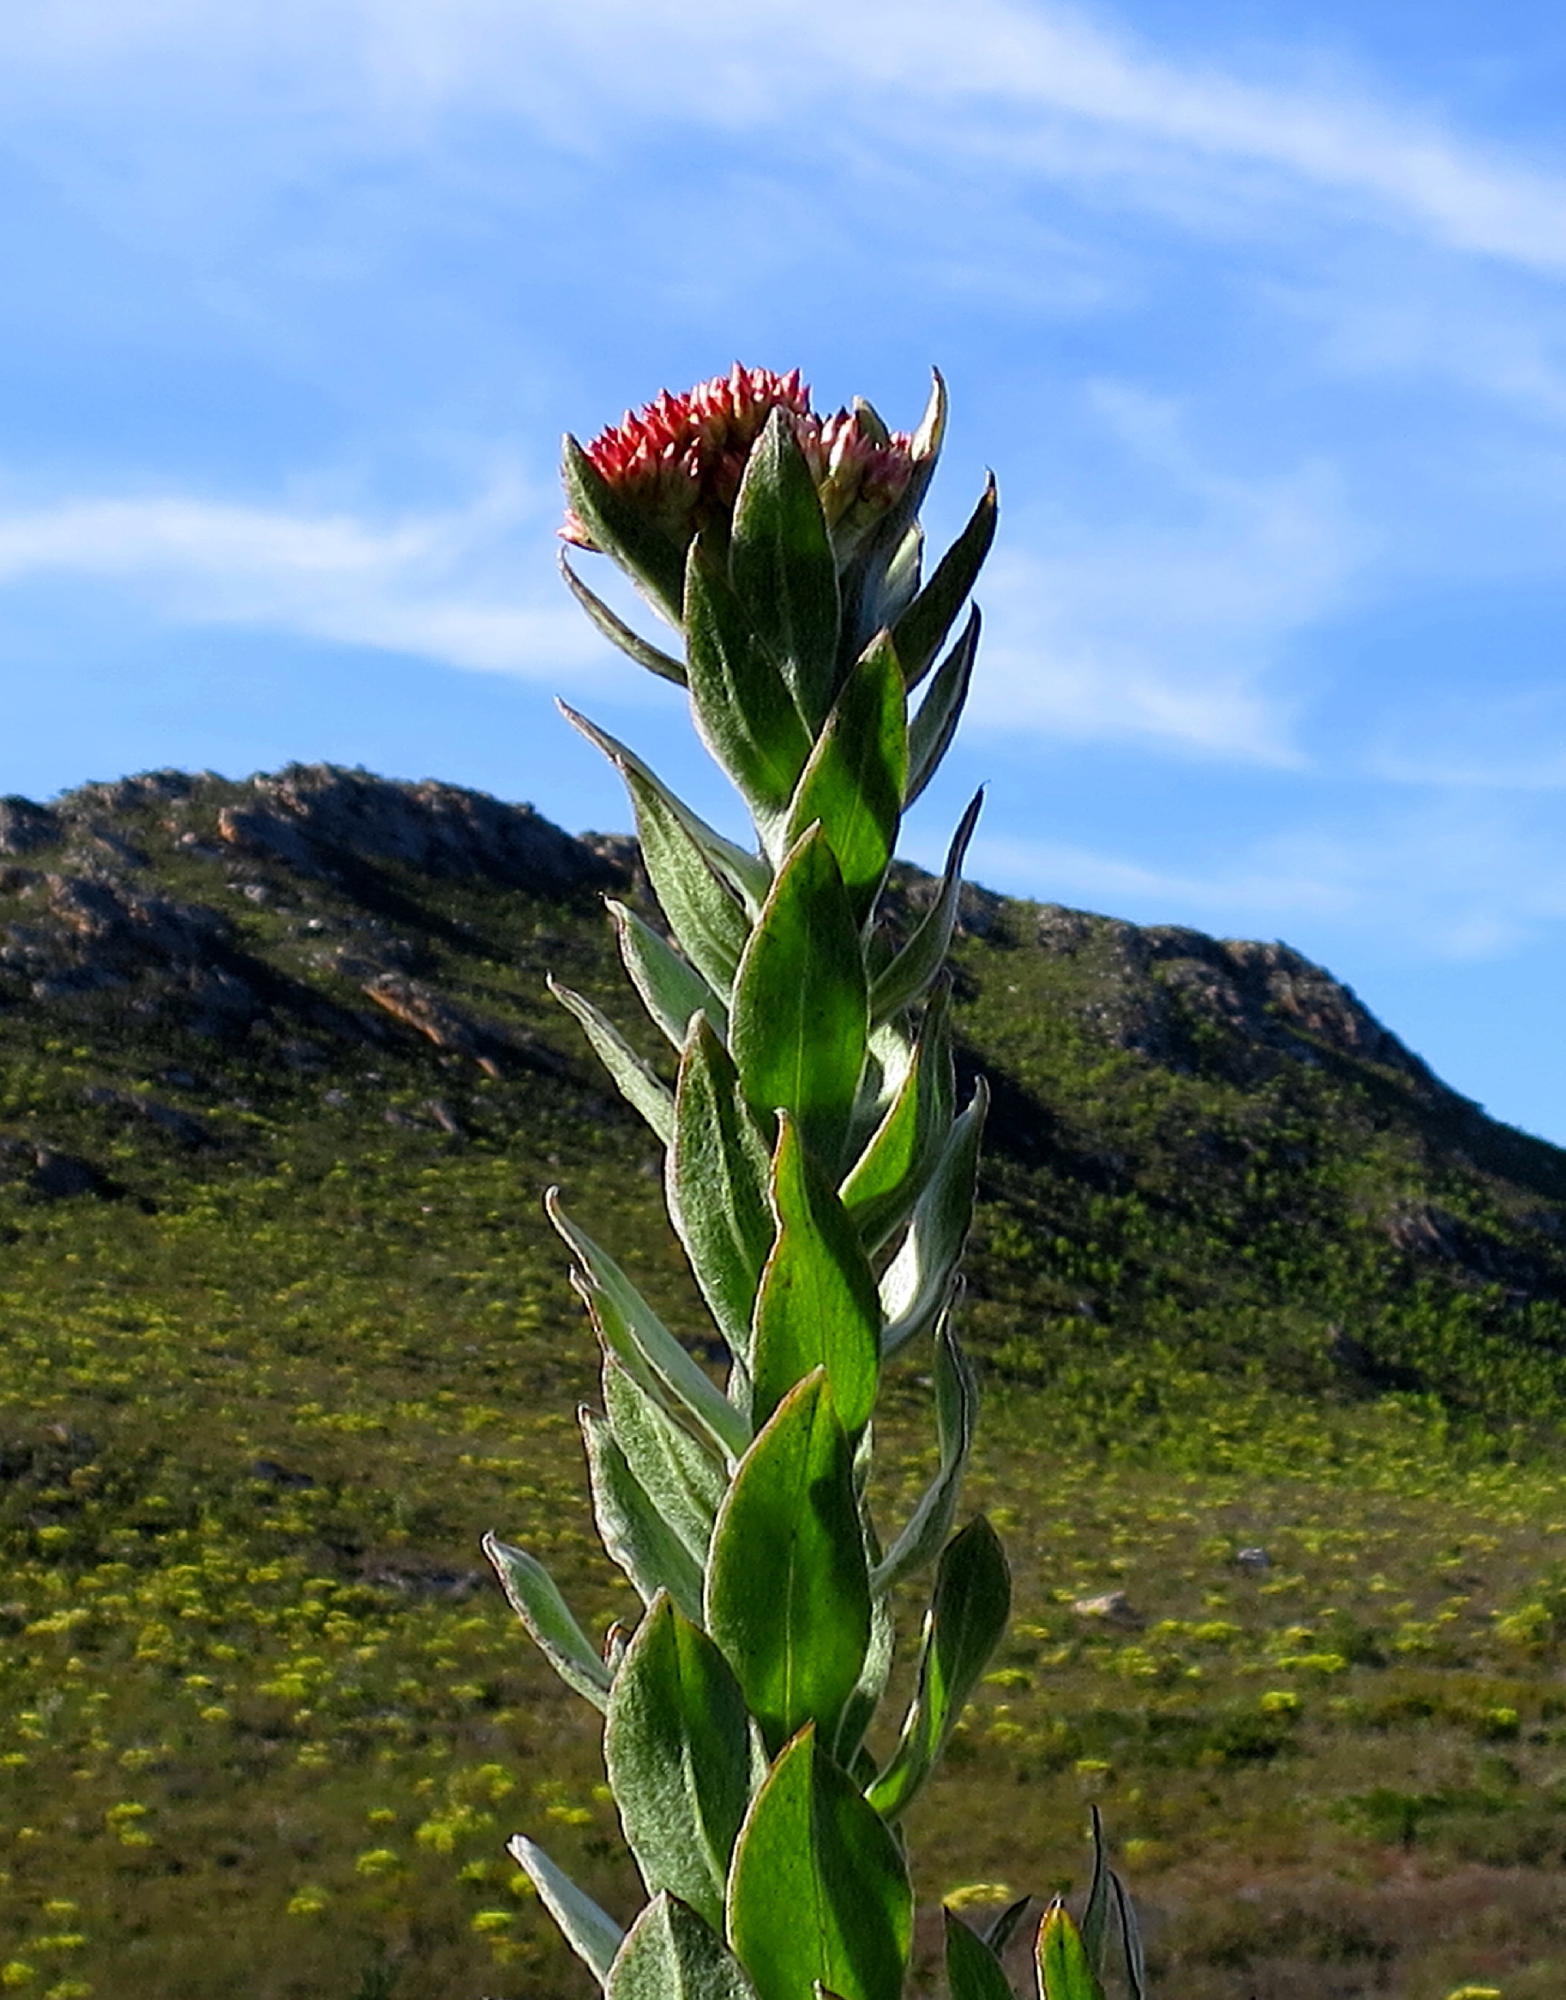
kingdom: Plantae
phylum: Tracheophyta
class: Magnoliopsida
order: Asterales
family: Asteraceae
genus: Syncarpha
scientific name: Syncarpha milleflora
